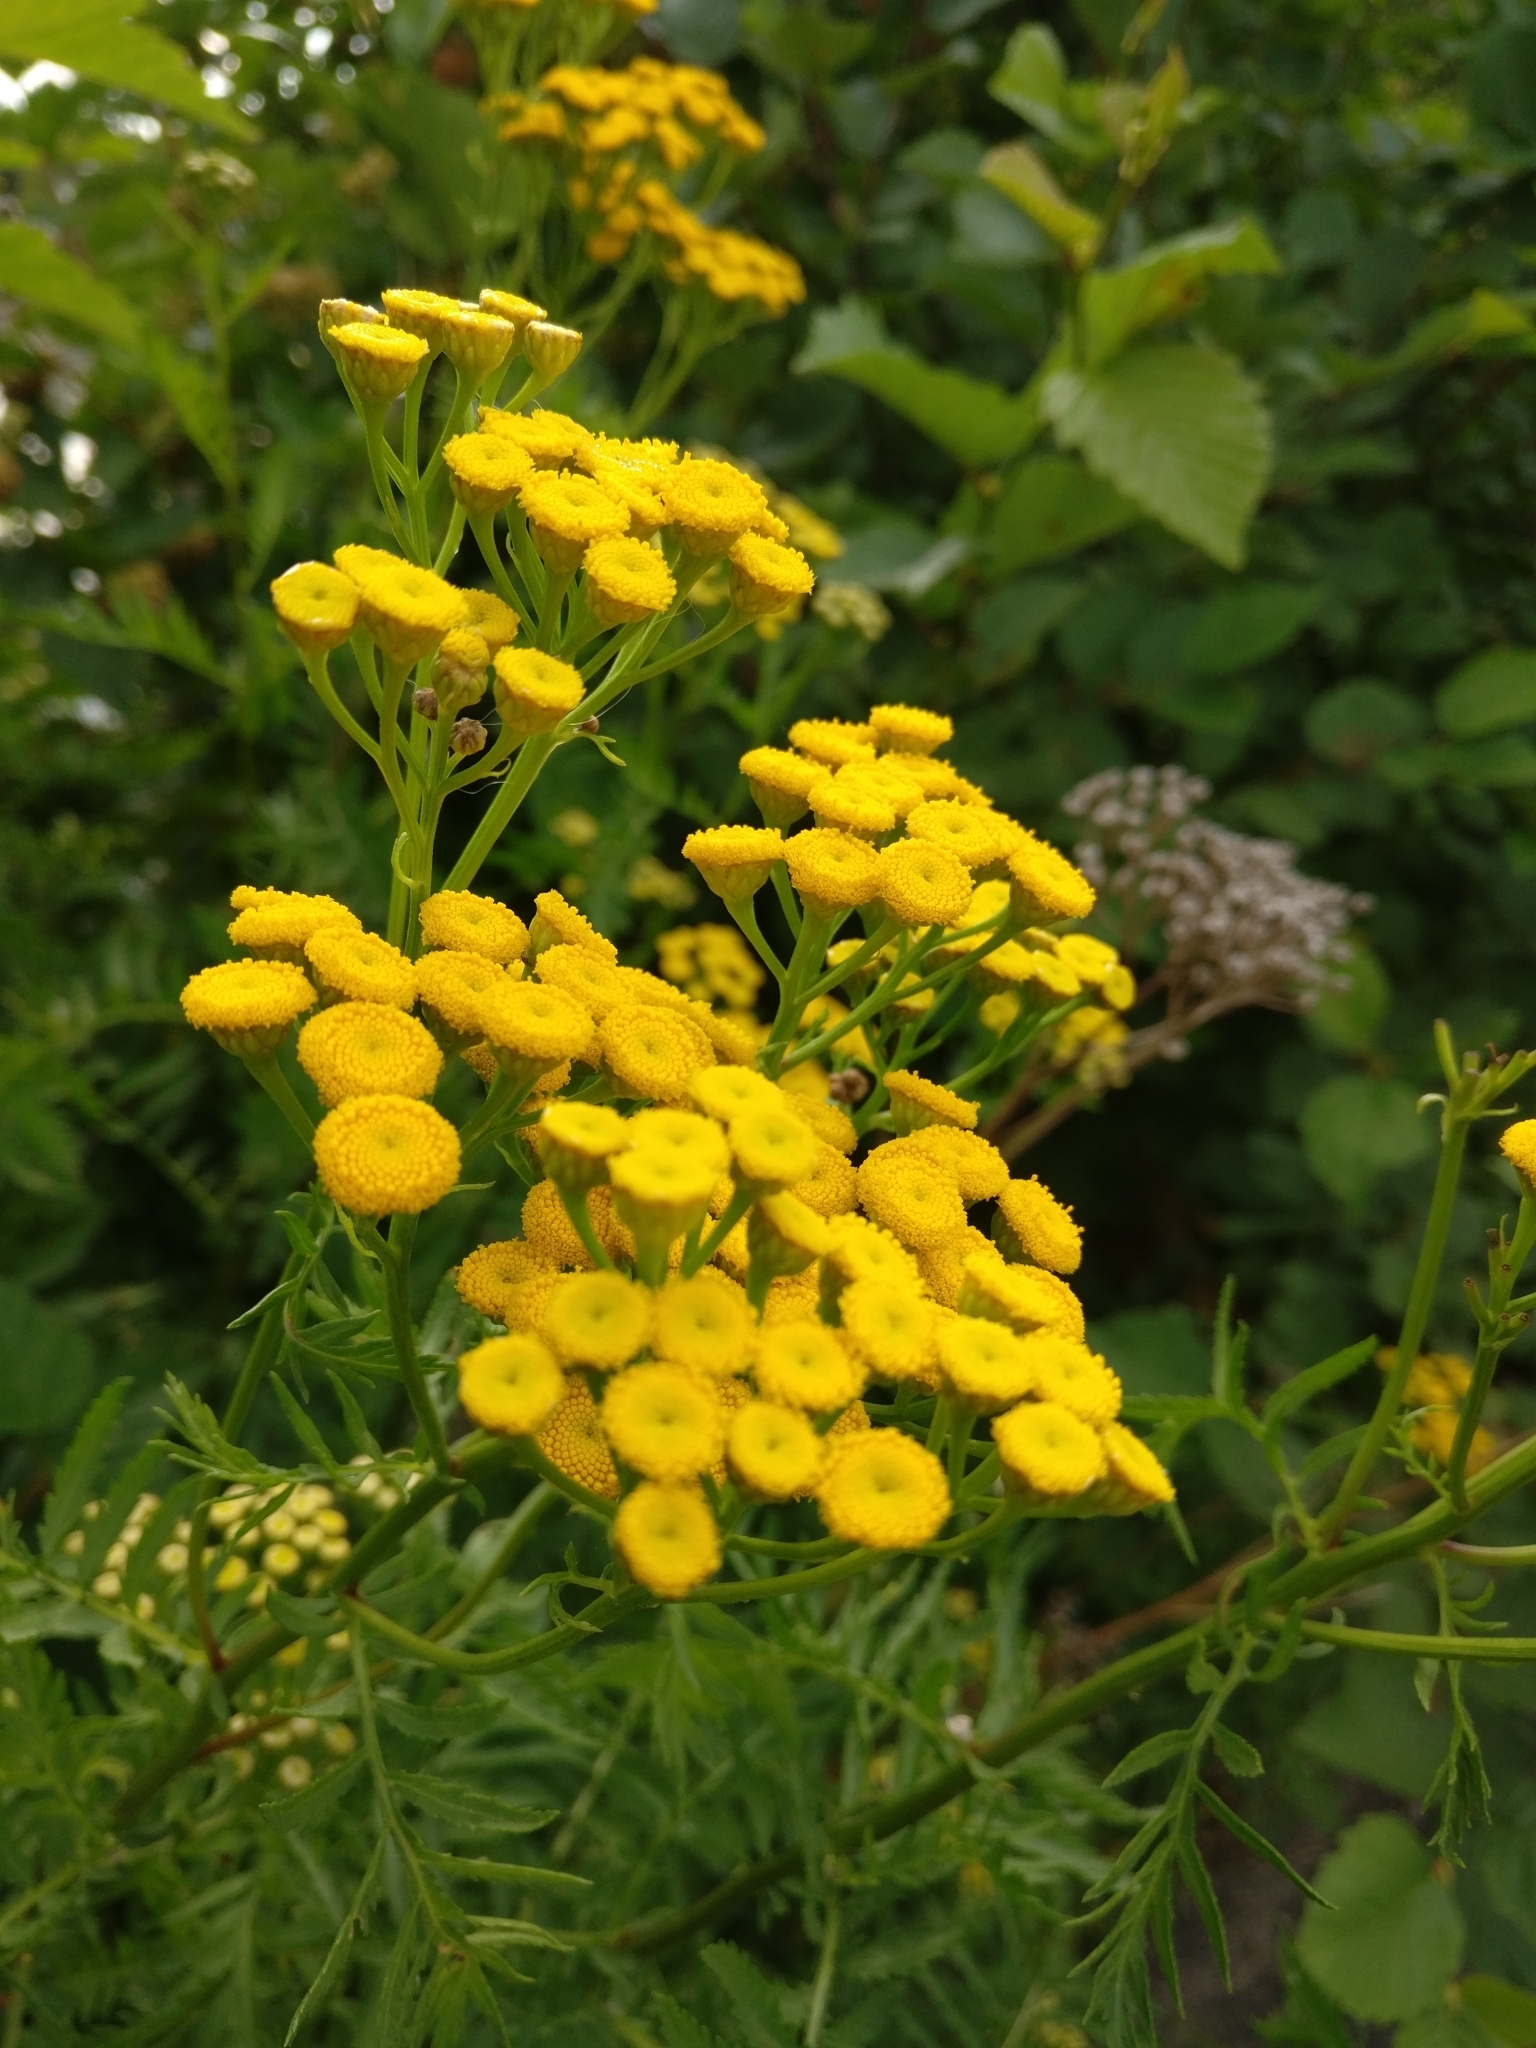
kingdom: Plantae
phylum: Tracheophyta
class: Magnoliopsida
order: Asterales
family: Asteraceae
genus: Tanacetum
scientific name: Tanacetum vulgare
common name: Common tansy
